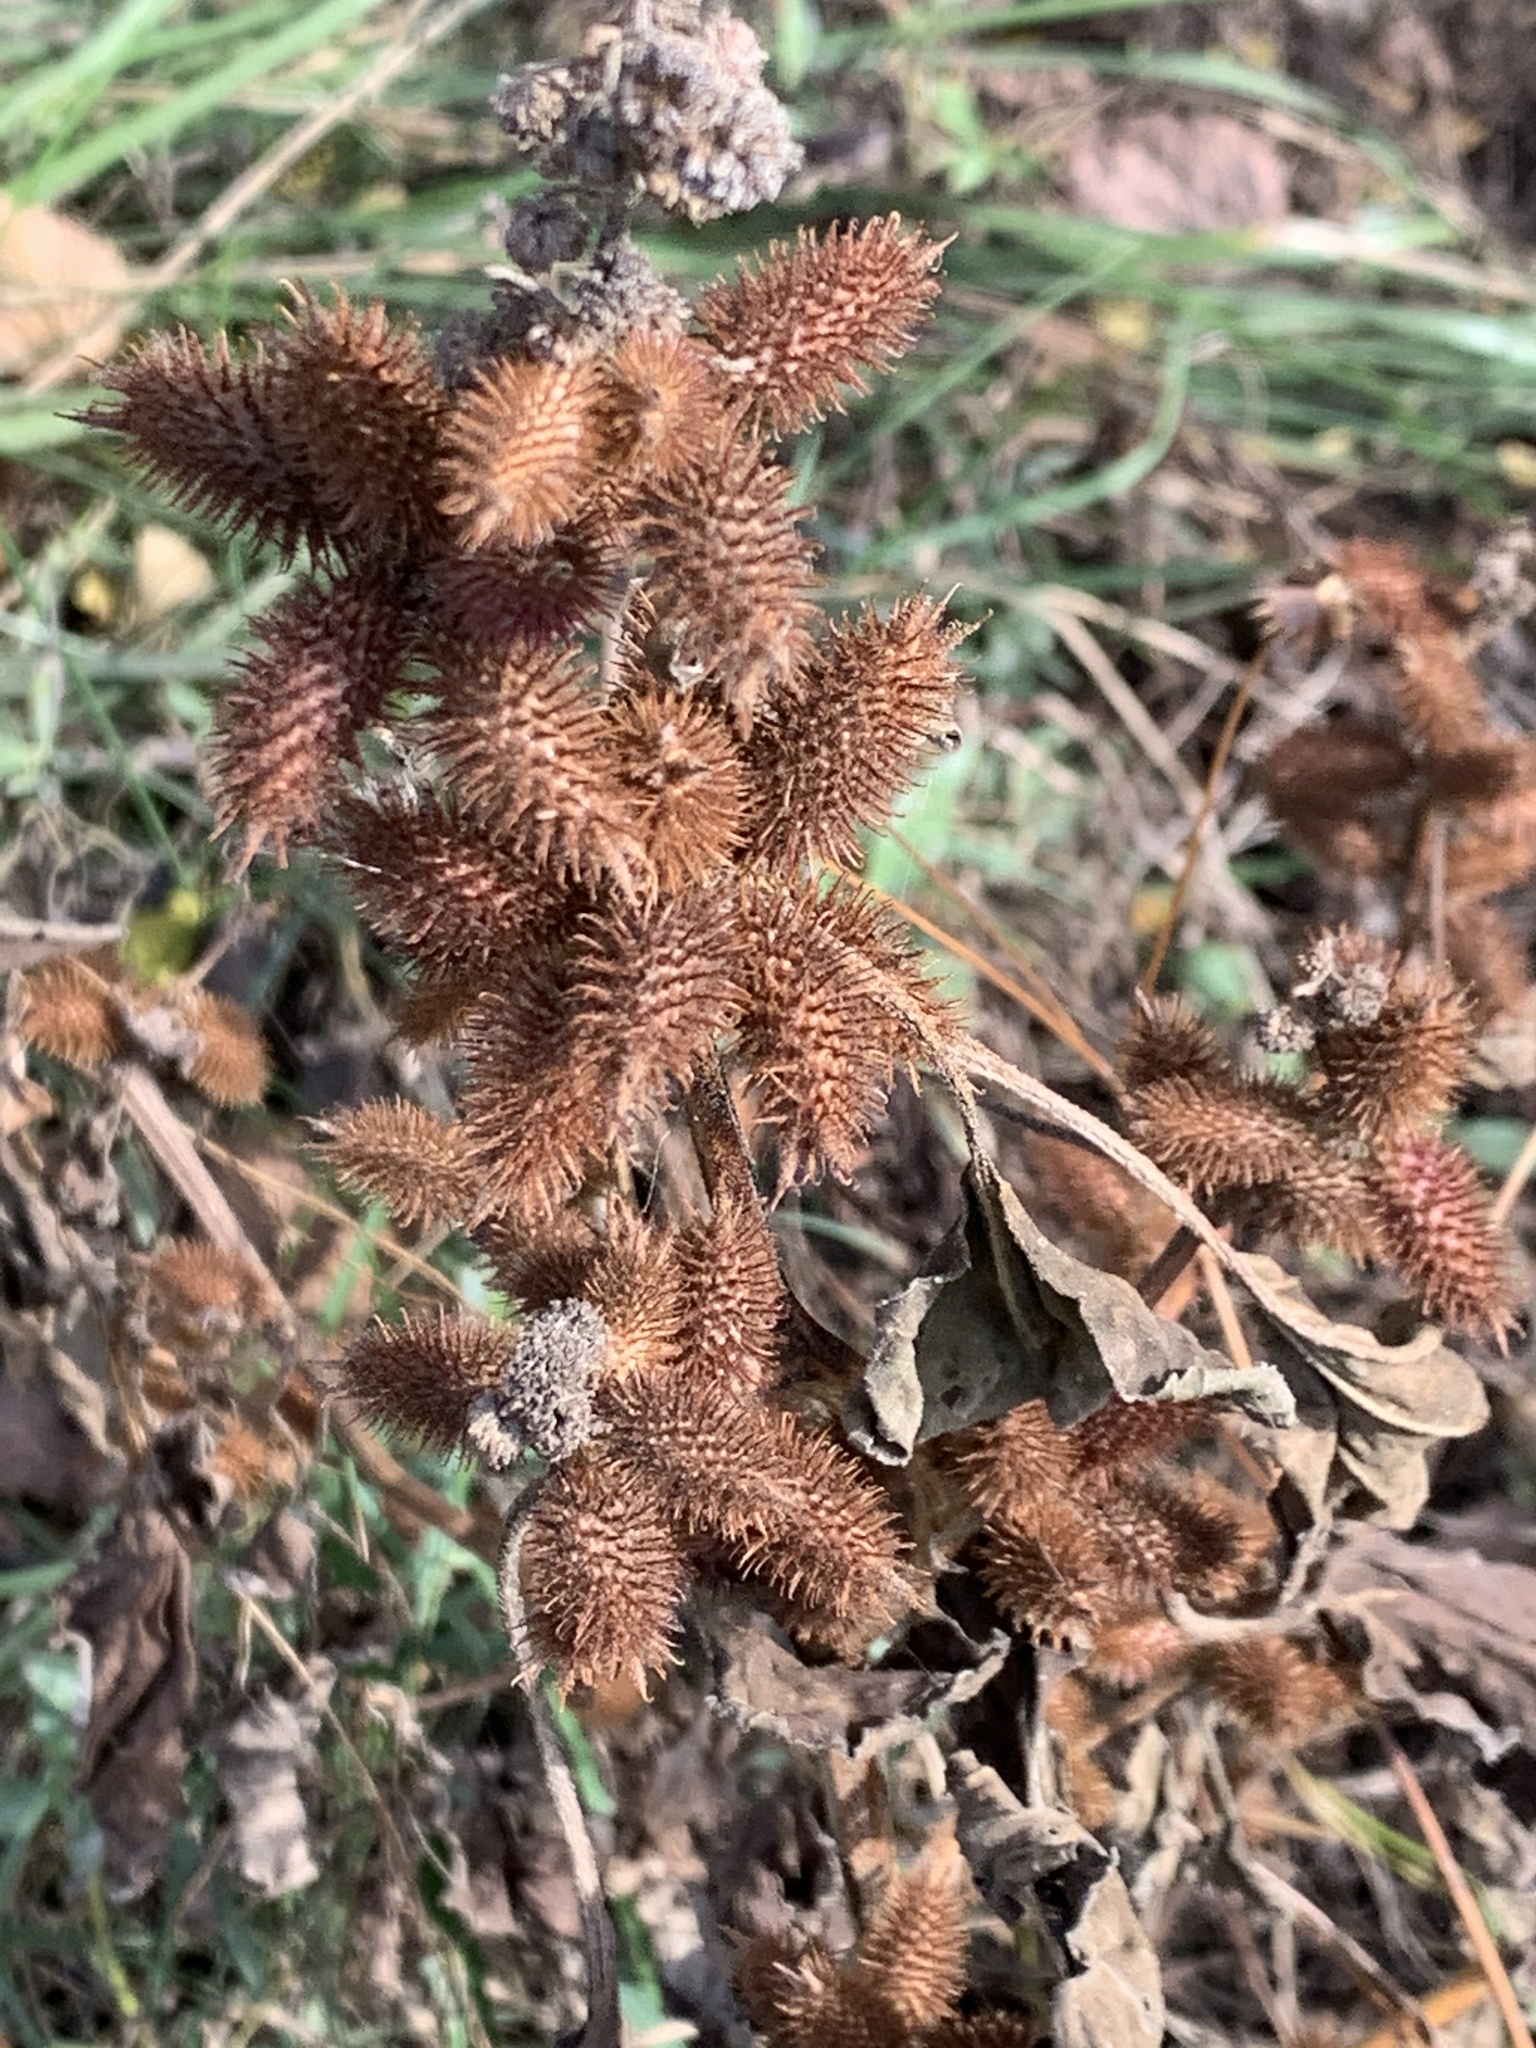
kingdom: Plantae
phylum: Tracheophyta
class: Magnoliopsida
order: Asterales
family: Asteraceae
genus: Xanthium
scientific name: Xanthium strumarium
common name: Rough cocklebur
